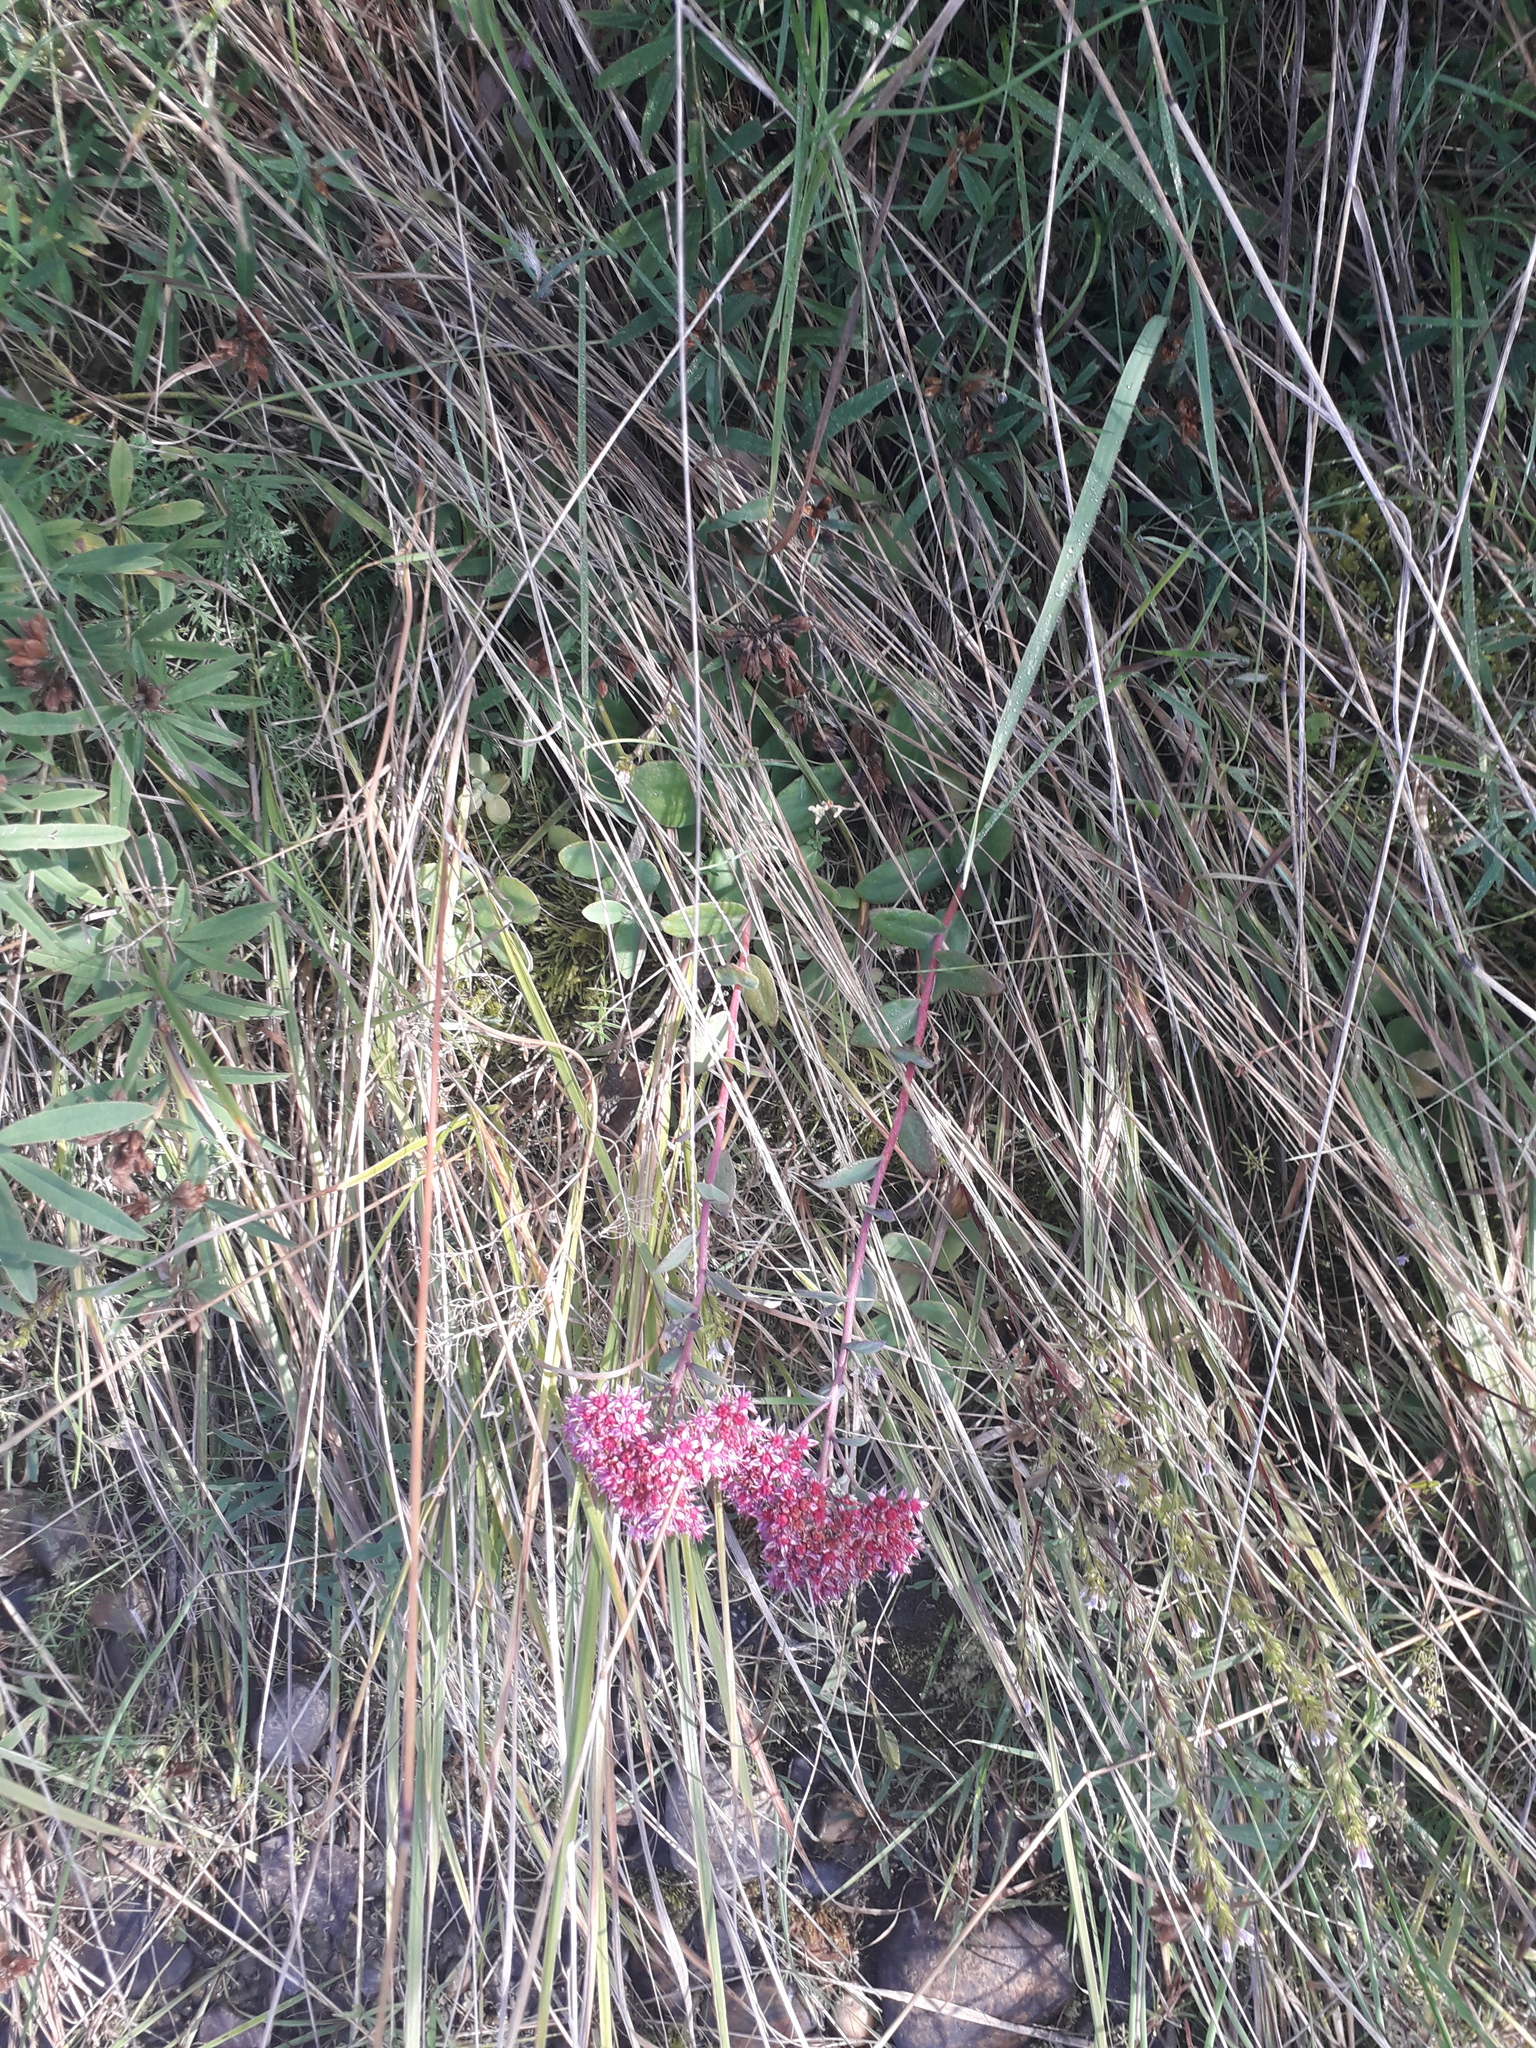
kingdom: Plantae
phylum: Tracheophyta
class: Magnoliopsida
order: Saxifragales
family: Crassulaceae
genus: Hylotelephium
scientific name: Hylotelephium telephium
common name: Live-forever
